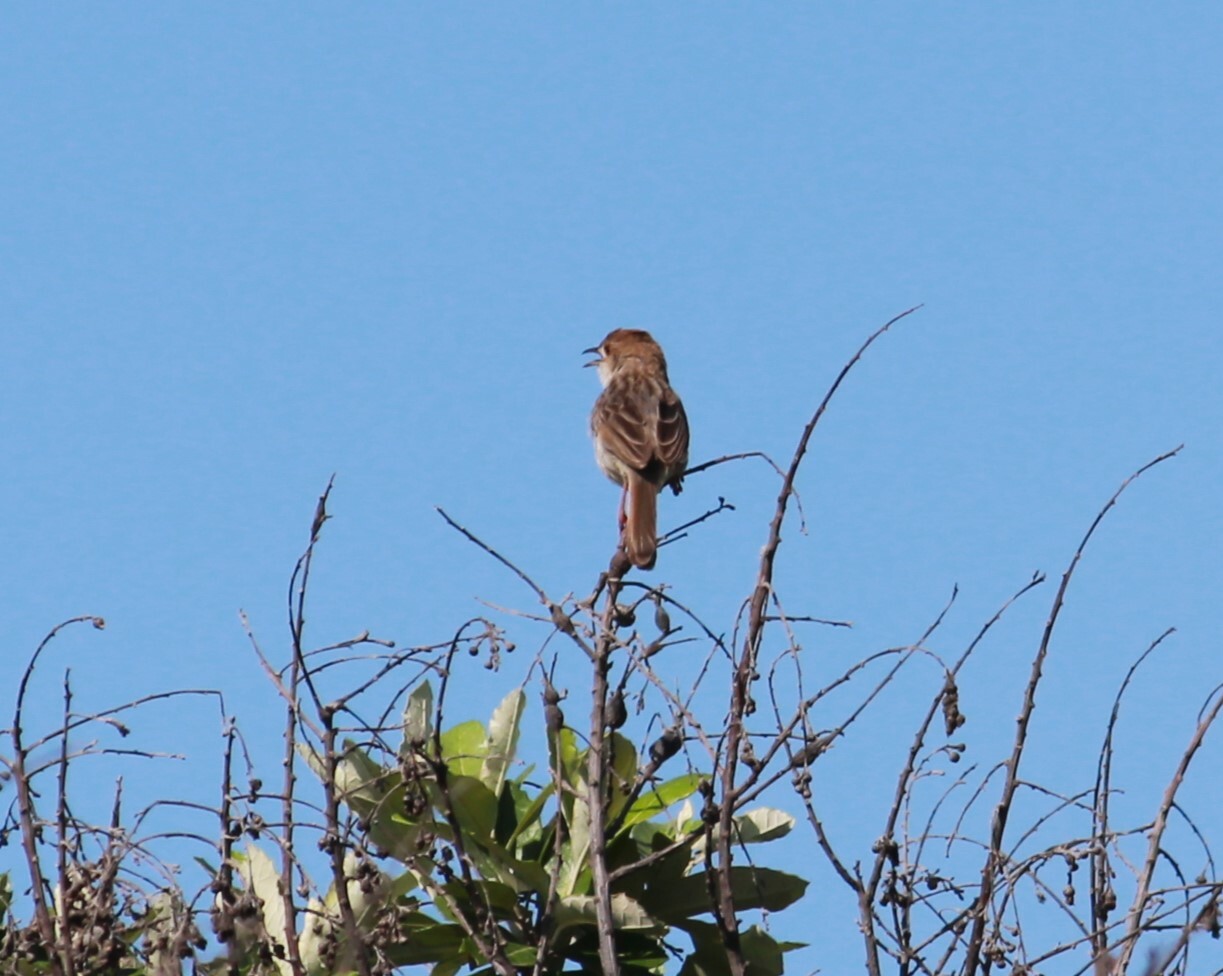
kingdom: Animalia
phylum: Chordata
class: Aves
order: Passeriformes
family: Cisticolidae
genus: Cisticola
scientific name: Cisticola chiniana
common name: Rattling cisticola
